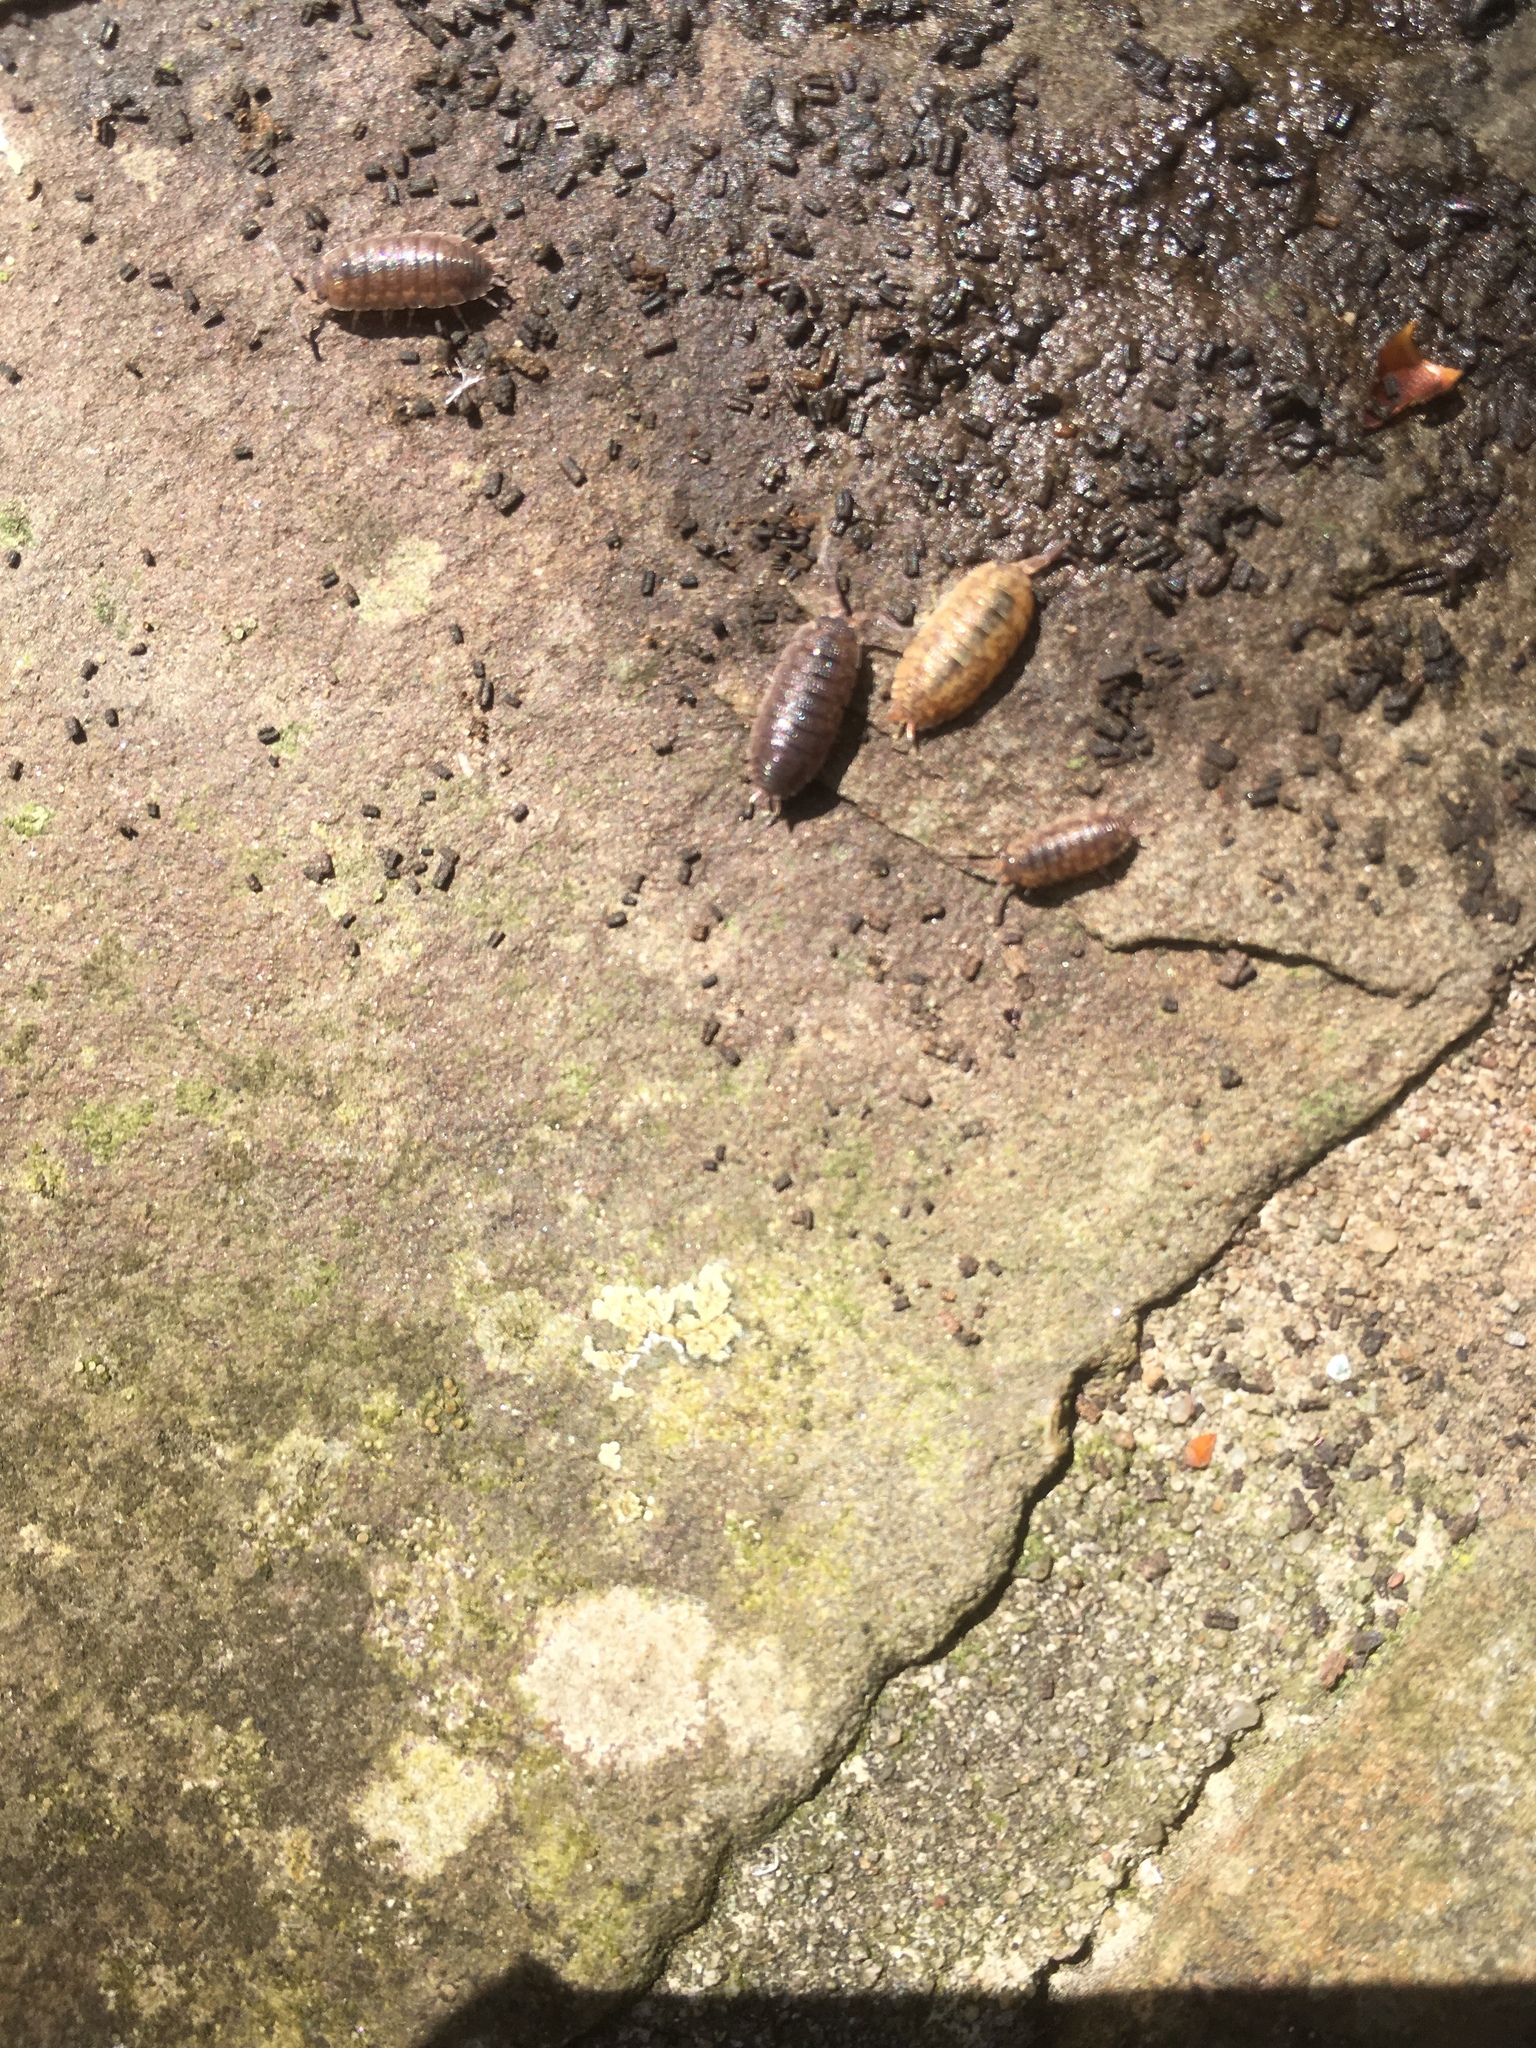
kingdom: Animalia
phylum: Arthropoda
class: Malacostraca
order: Isopoda
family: Porcellionidae
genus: Porcellio
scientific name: Porcellio scaber
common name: Common rough woodlouse
